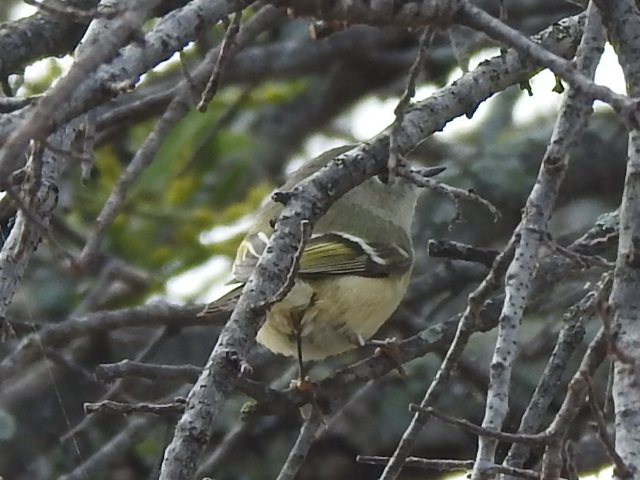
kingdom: Animalia
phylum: Chordata
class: Aves
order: Passeriformes
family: Regulidae
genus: Regulus
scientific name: Regulus calendula
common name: Ruby-crowned kinglet
